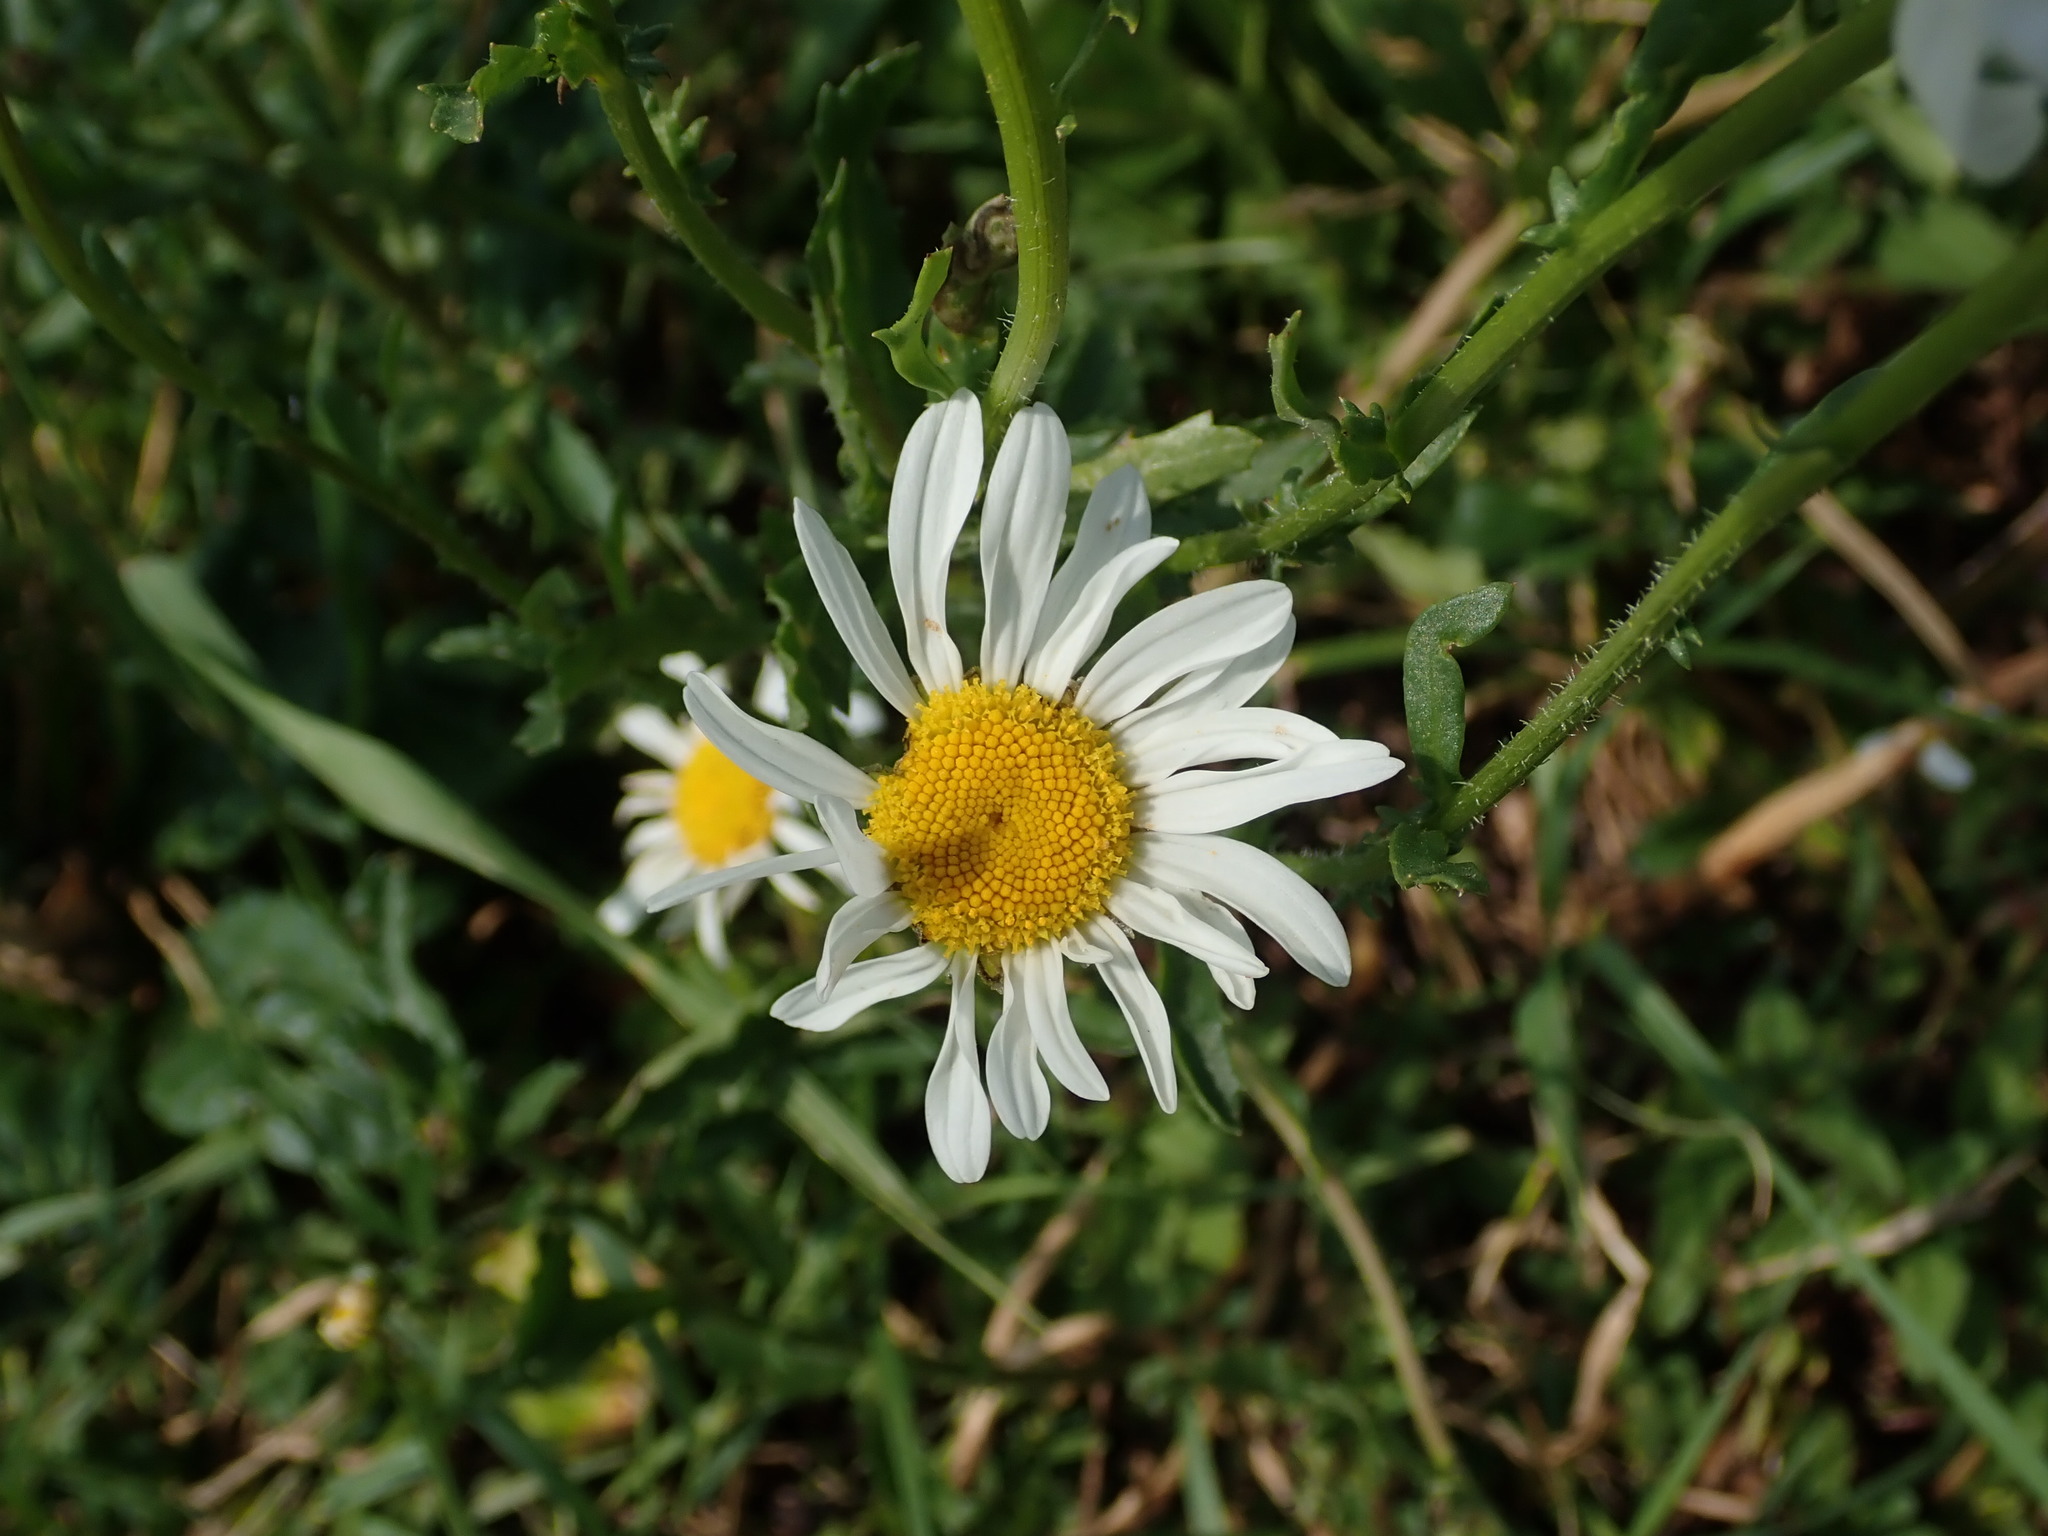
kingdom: Plantae
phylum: Tracheophyta
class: Magnoliopsida
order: Asterales
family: Asteraceae
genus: Leucanthemum
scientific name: Leucanthemum vulgare
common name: Oxeye daisy
